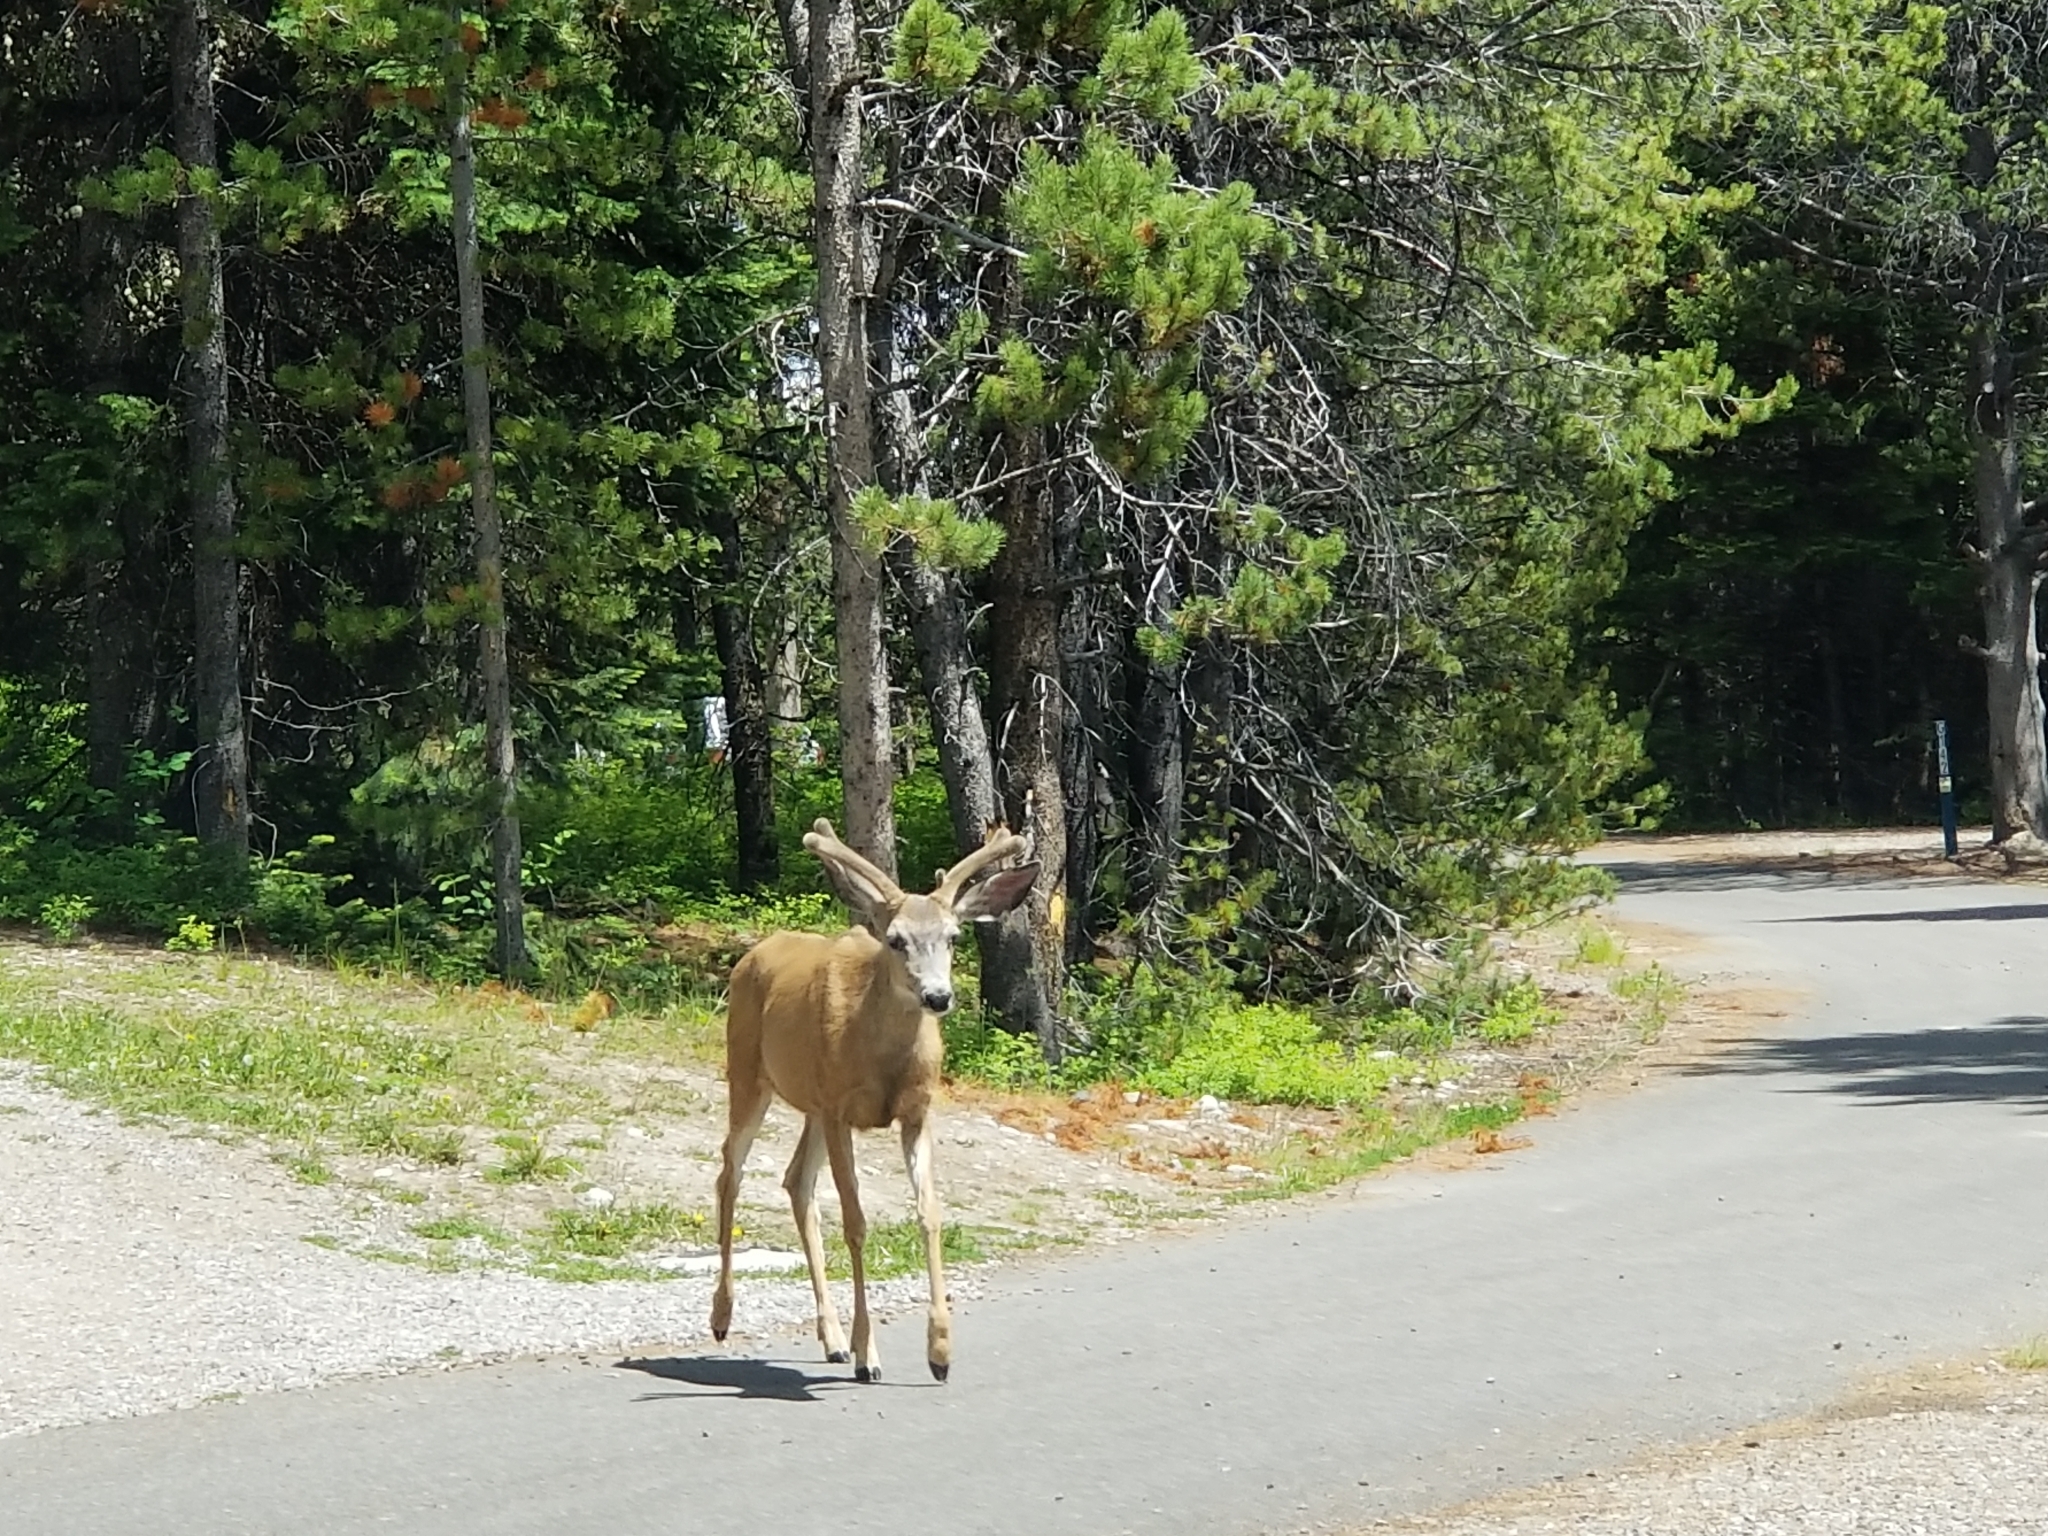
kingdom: Animalia
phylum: Chordata
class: Mammalia
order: Artiodactyla
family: Cervidae
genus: Odocoileus
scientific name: Odocoileus hemionus
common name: Mule deer
